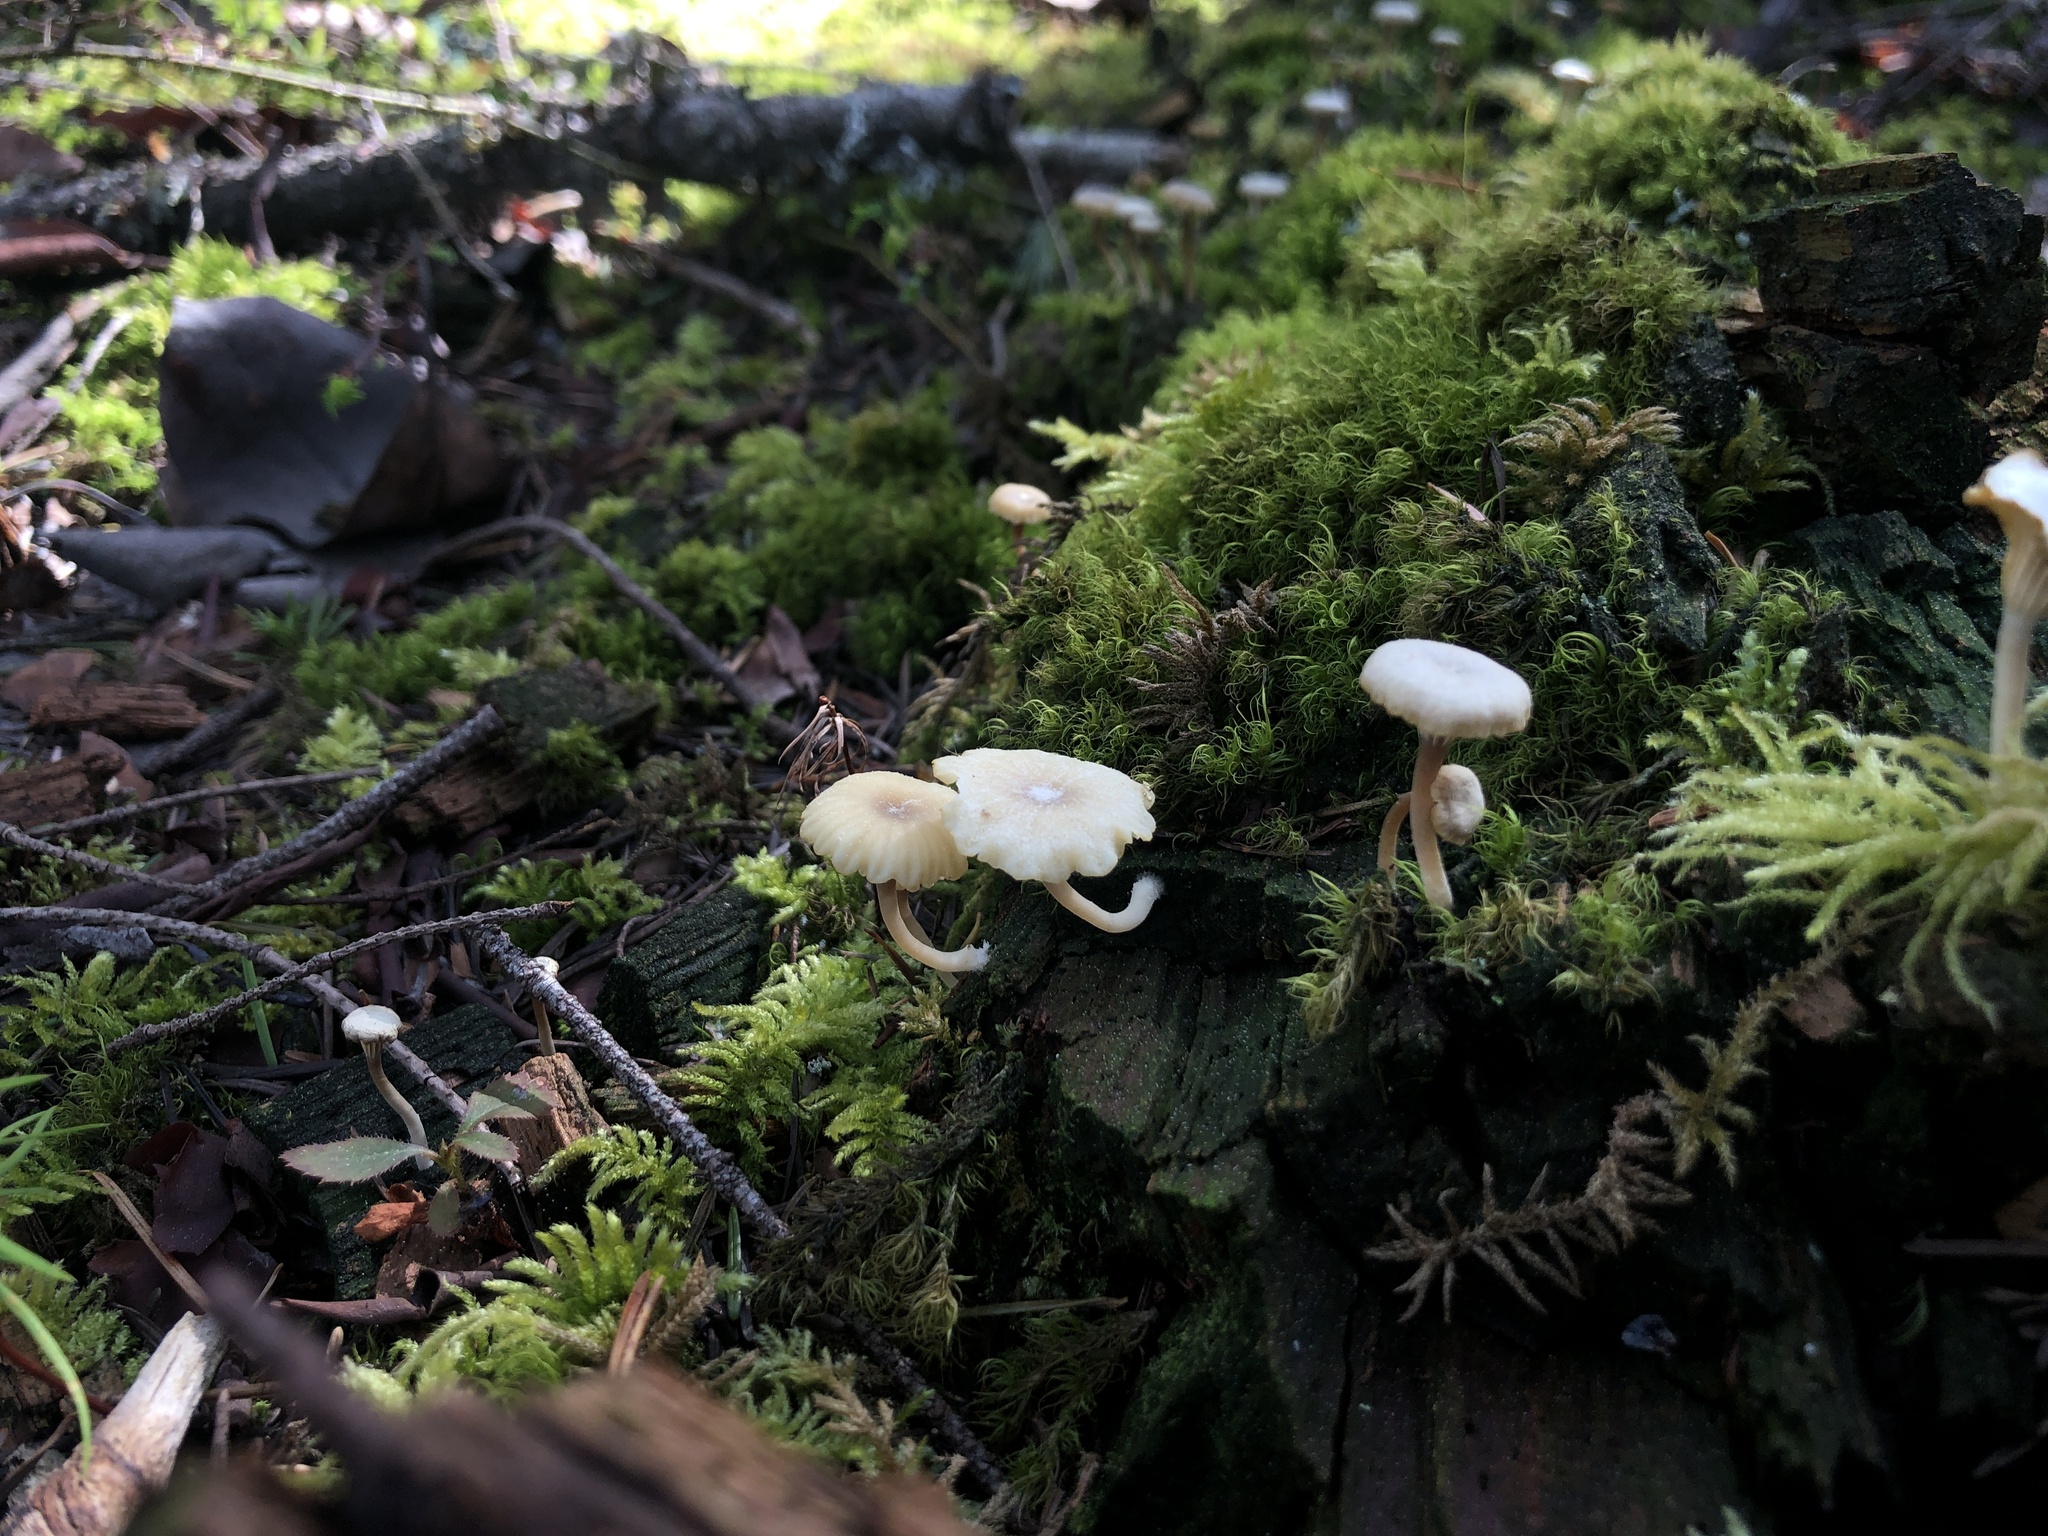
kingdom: Fungi
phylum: Basidiomycota
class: Agaricomycetes
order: Agaricales
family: Hygrophoraceae
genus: Lichenomphalia
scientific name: Lichenomphalia
